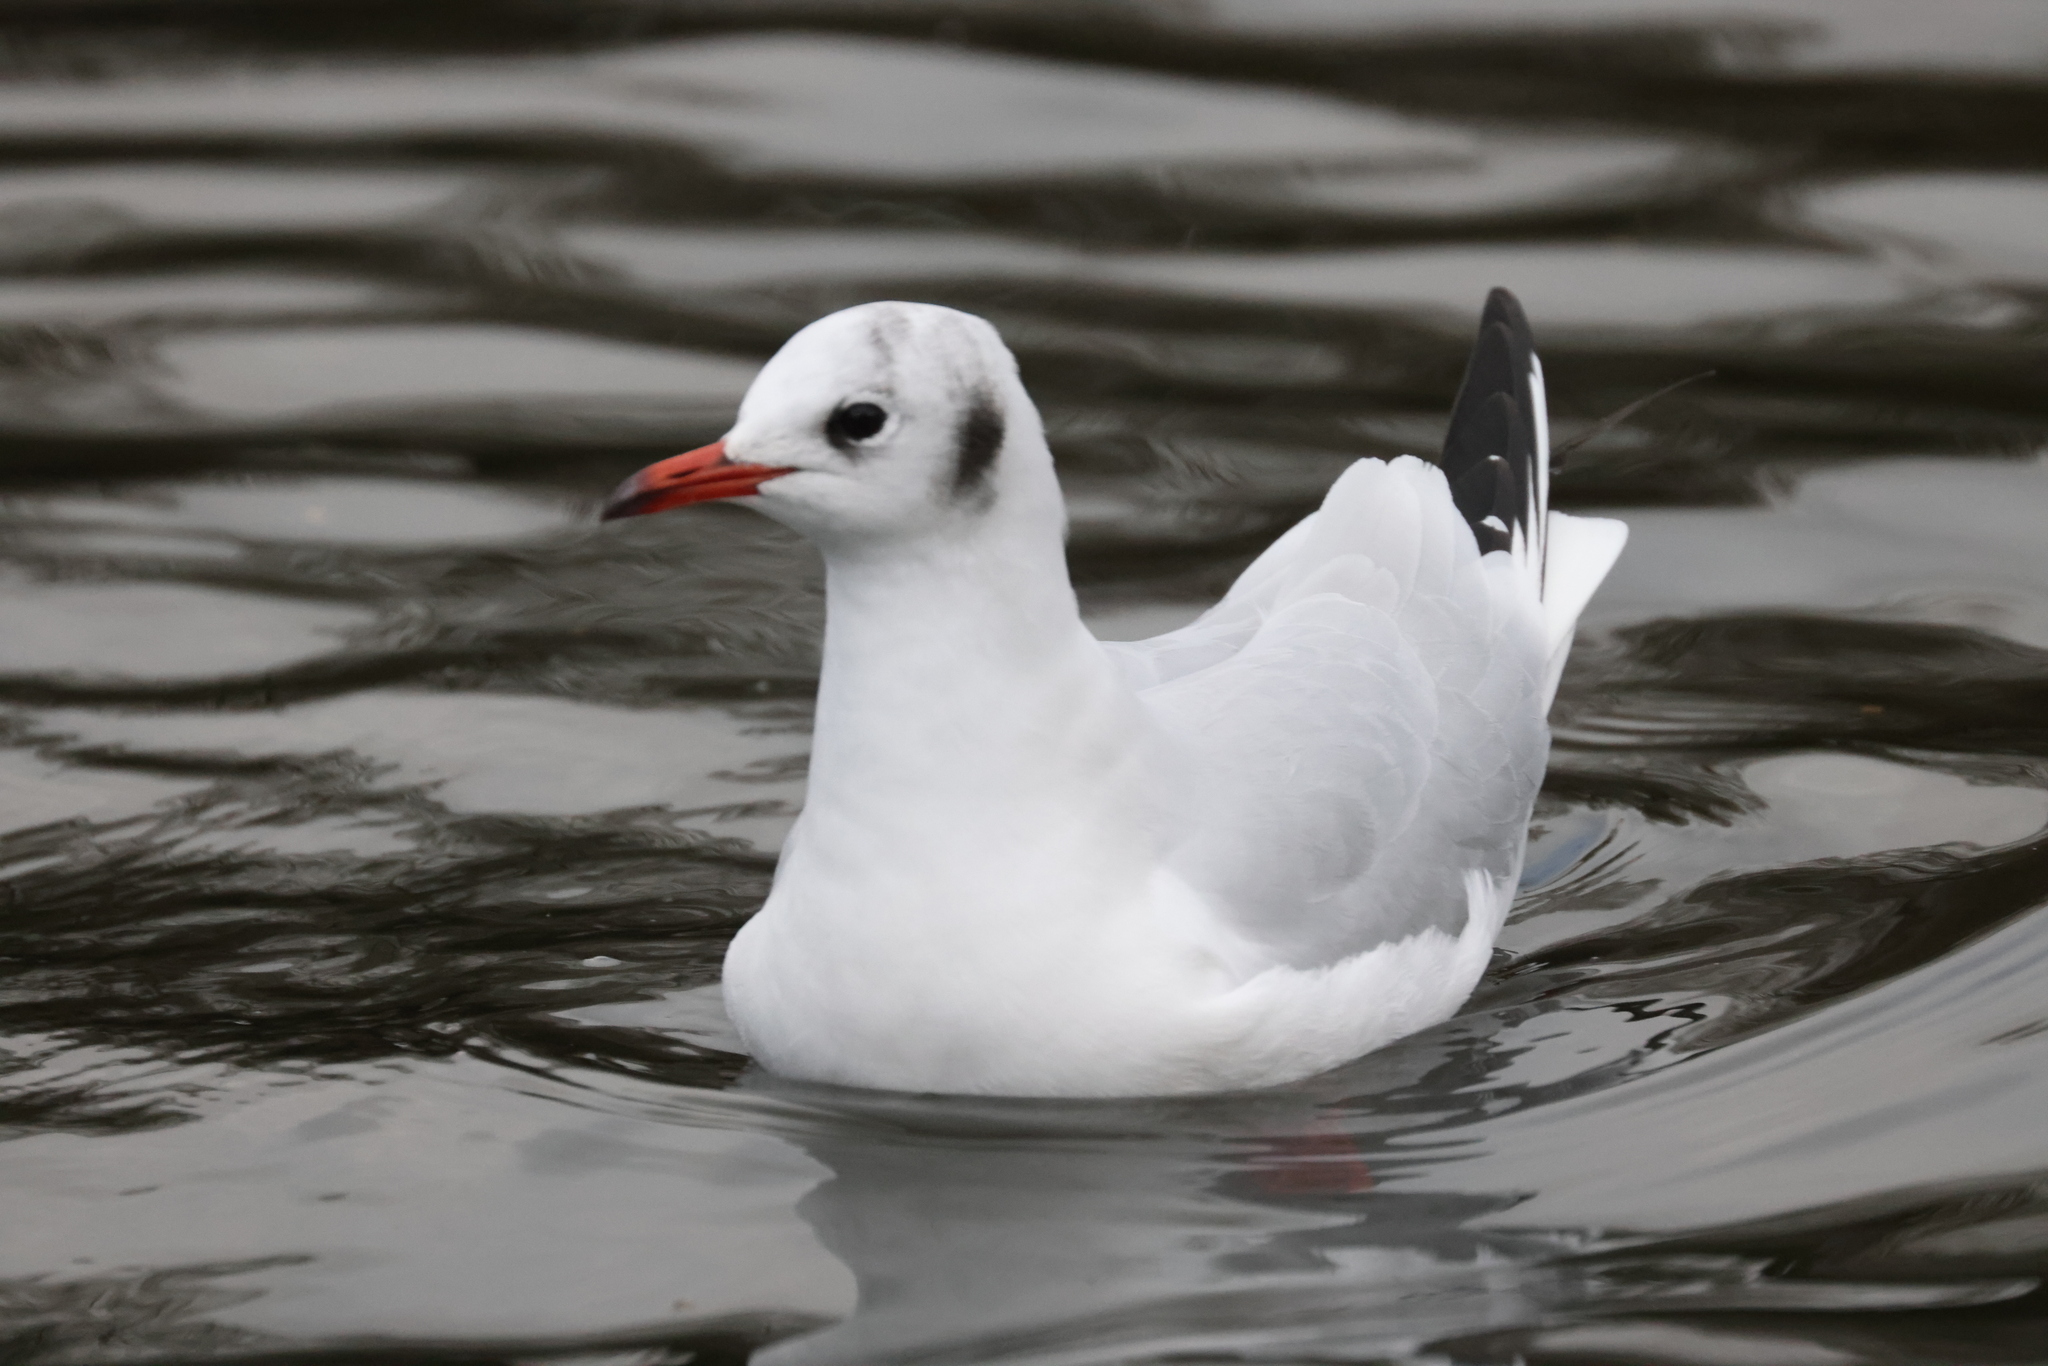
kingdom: Animalia
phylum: Chordata
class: Aves
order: Charadriiformes
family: Laridae
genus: Chroicocephalus
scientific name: Chroicocephalus ridibundus
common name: Black-headed gull
